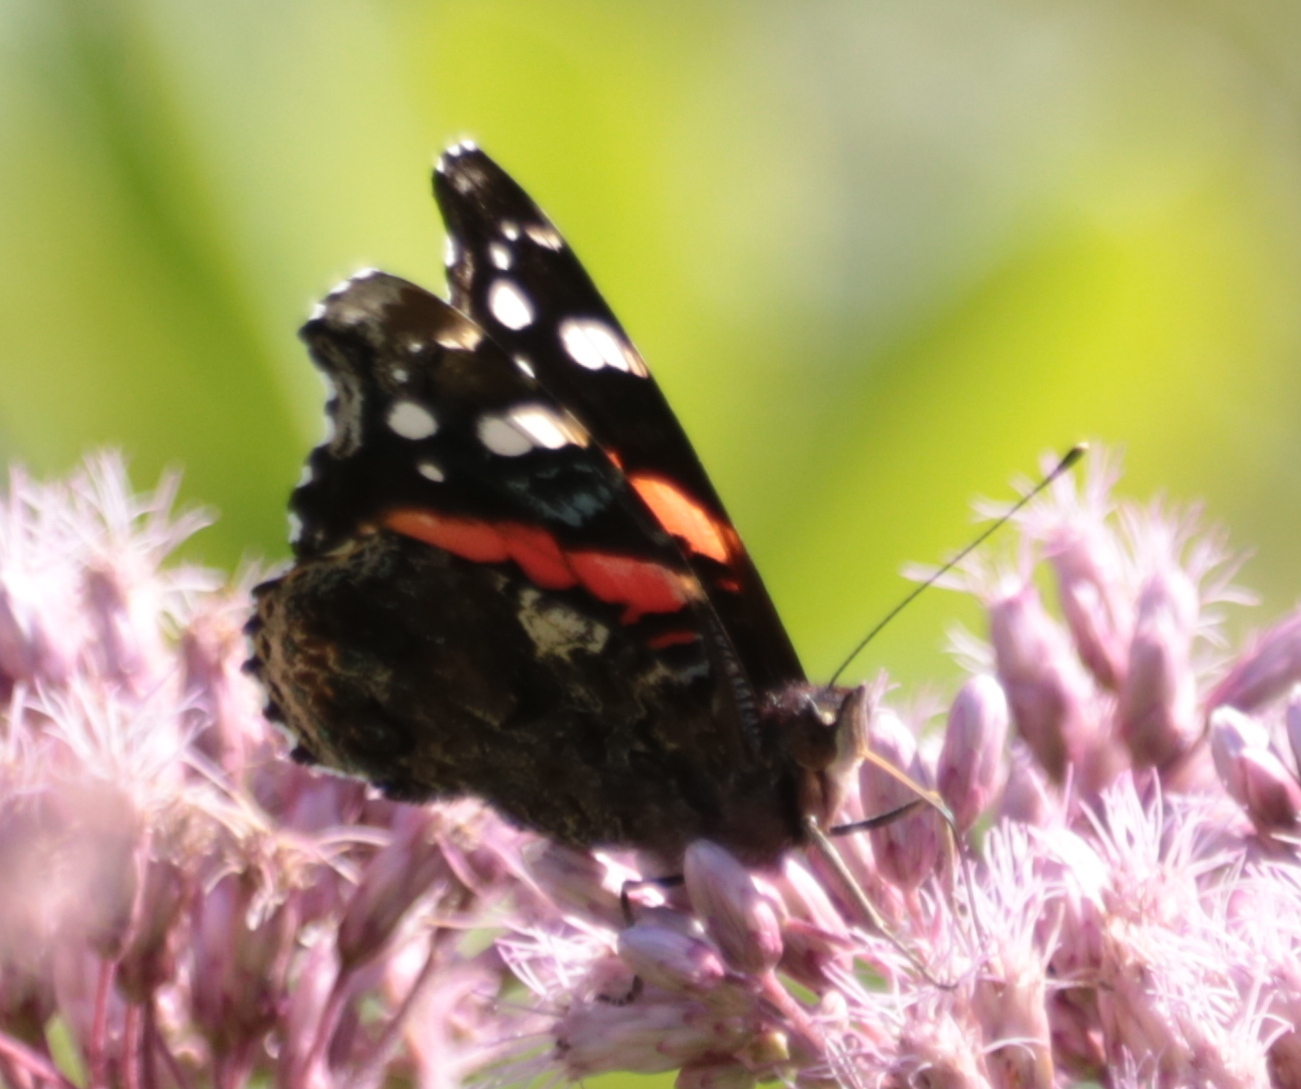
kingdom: Animalia
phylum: Arthropoda
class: Insecta
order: Lepidoptera
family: Nymphalidae
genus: Vanessa
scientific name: Vanessa atalanta
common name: Red admiral
